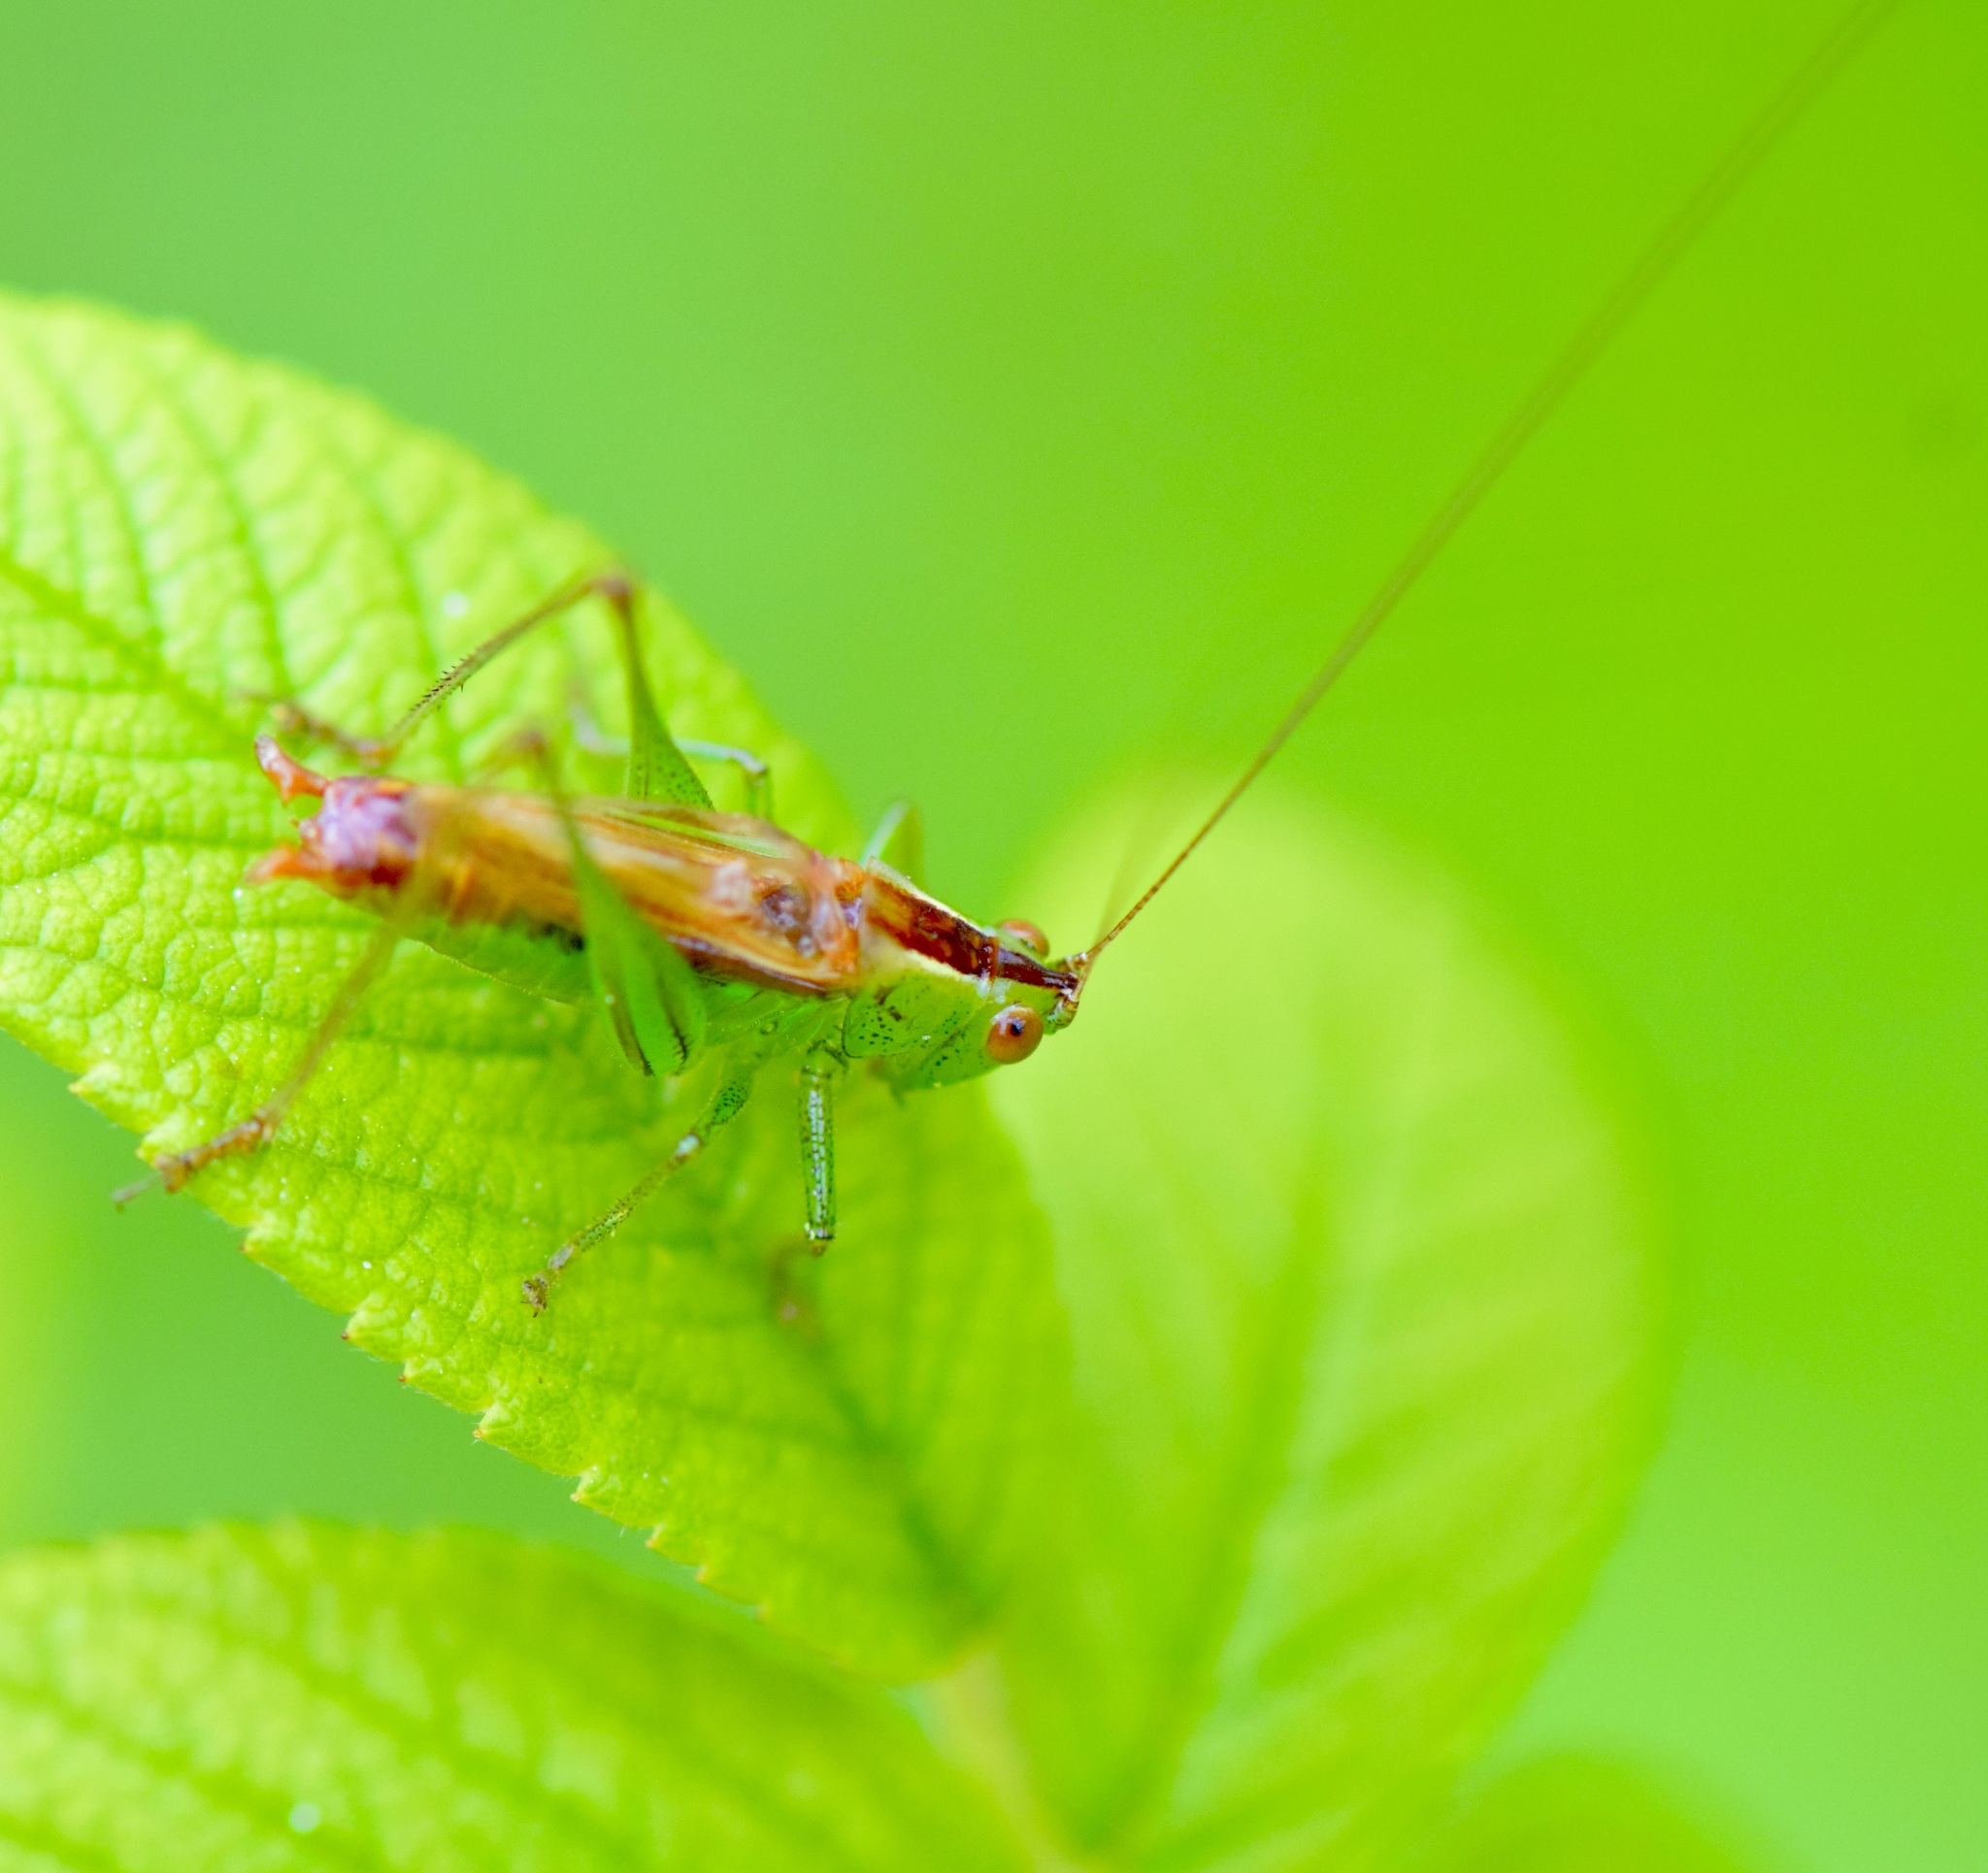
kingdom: Animalia
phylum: Arthropoda
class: Insecta
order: Orthoptera
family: Tettigoniidae
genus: Conocephalus
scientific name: Conocephalus brevipennis
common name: Short-winged meadow katydid
